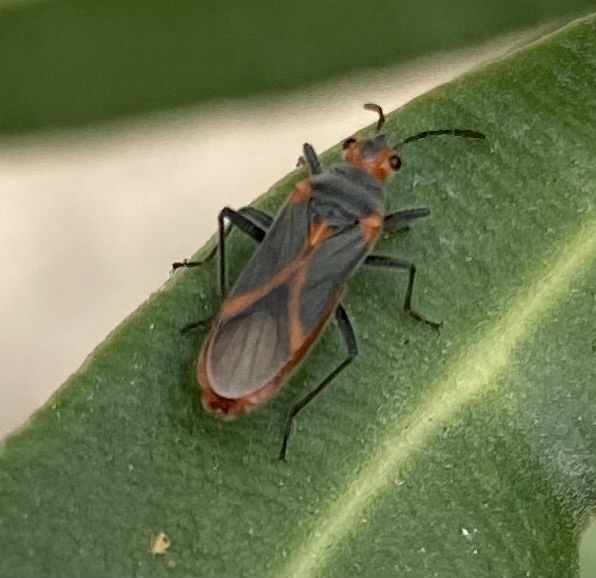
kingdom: Animalia
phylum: Arthropoda
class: Insecta
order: Hemiptera
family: Lygaeidae
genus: Caenocoris
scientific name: Caenocoris nerii
